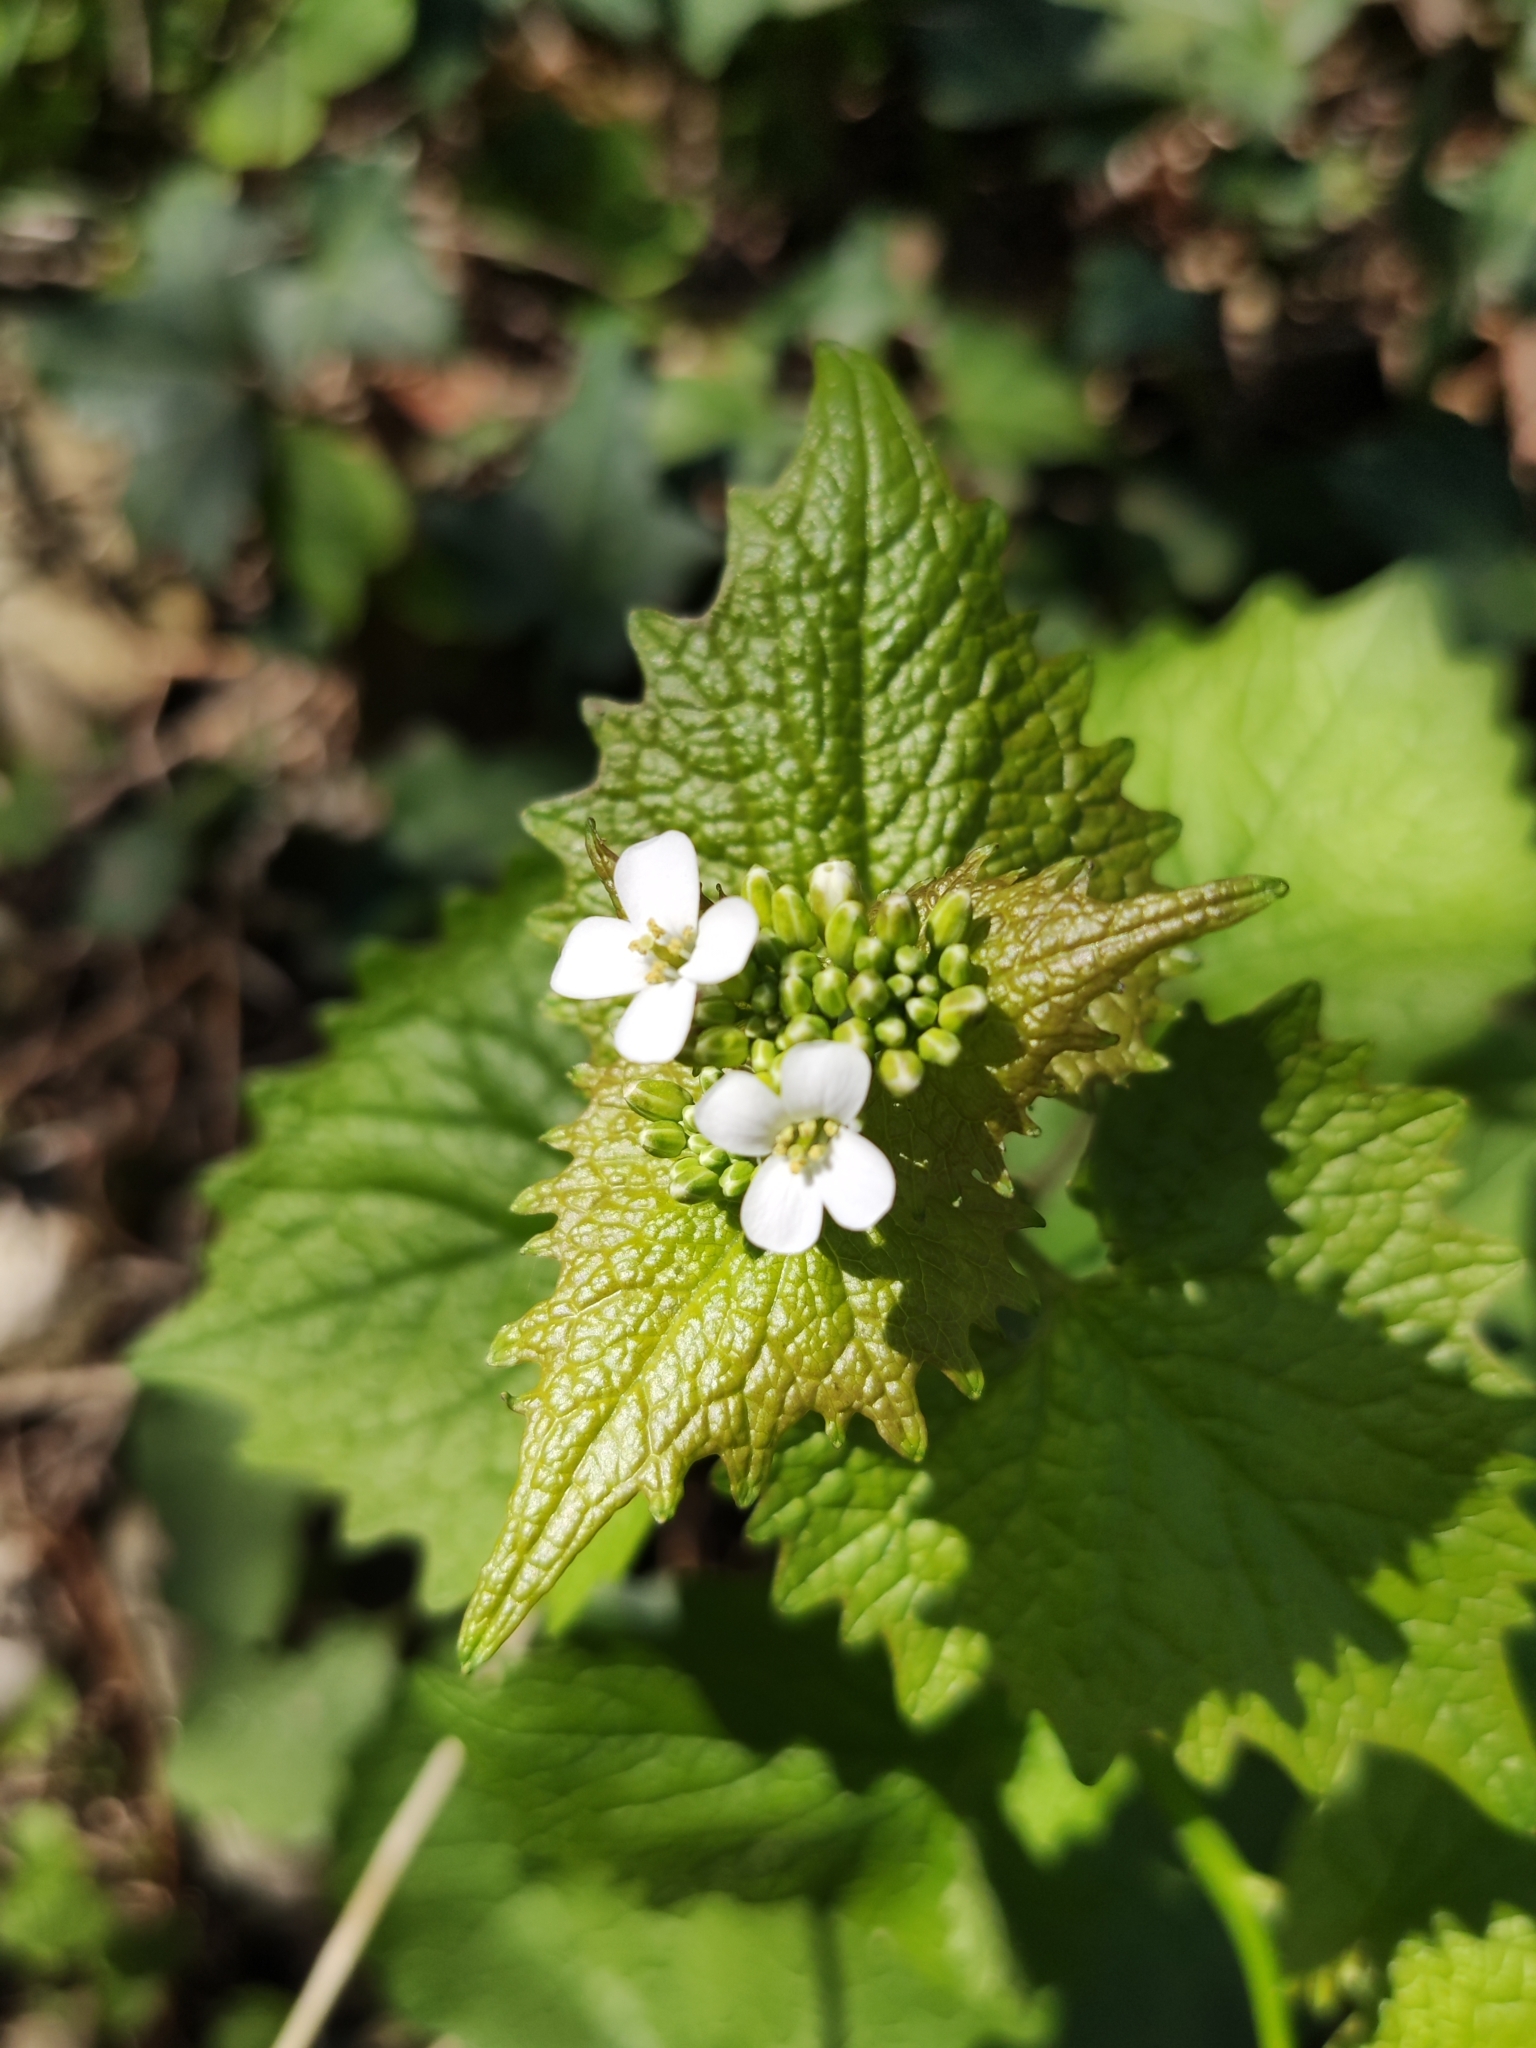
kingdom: Plantae
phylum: Tracheophyta
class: Magnoliopsida
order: Brassicales
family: Brassicaceae
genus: Alliaria
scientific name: Alliaria petiolata
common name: Garlic mustard
